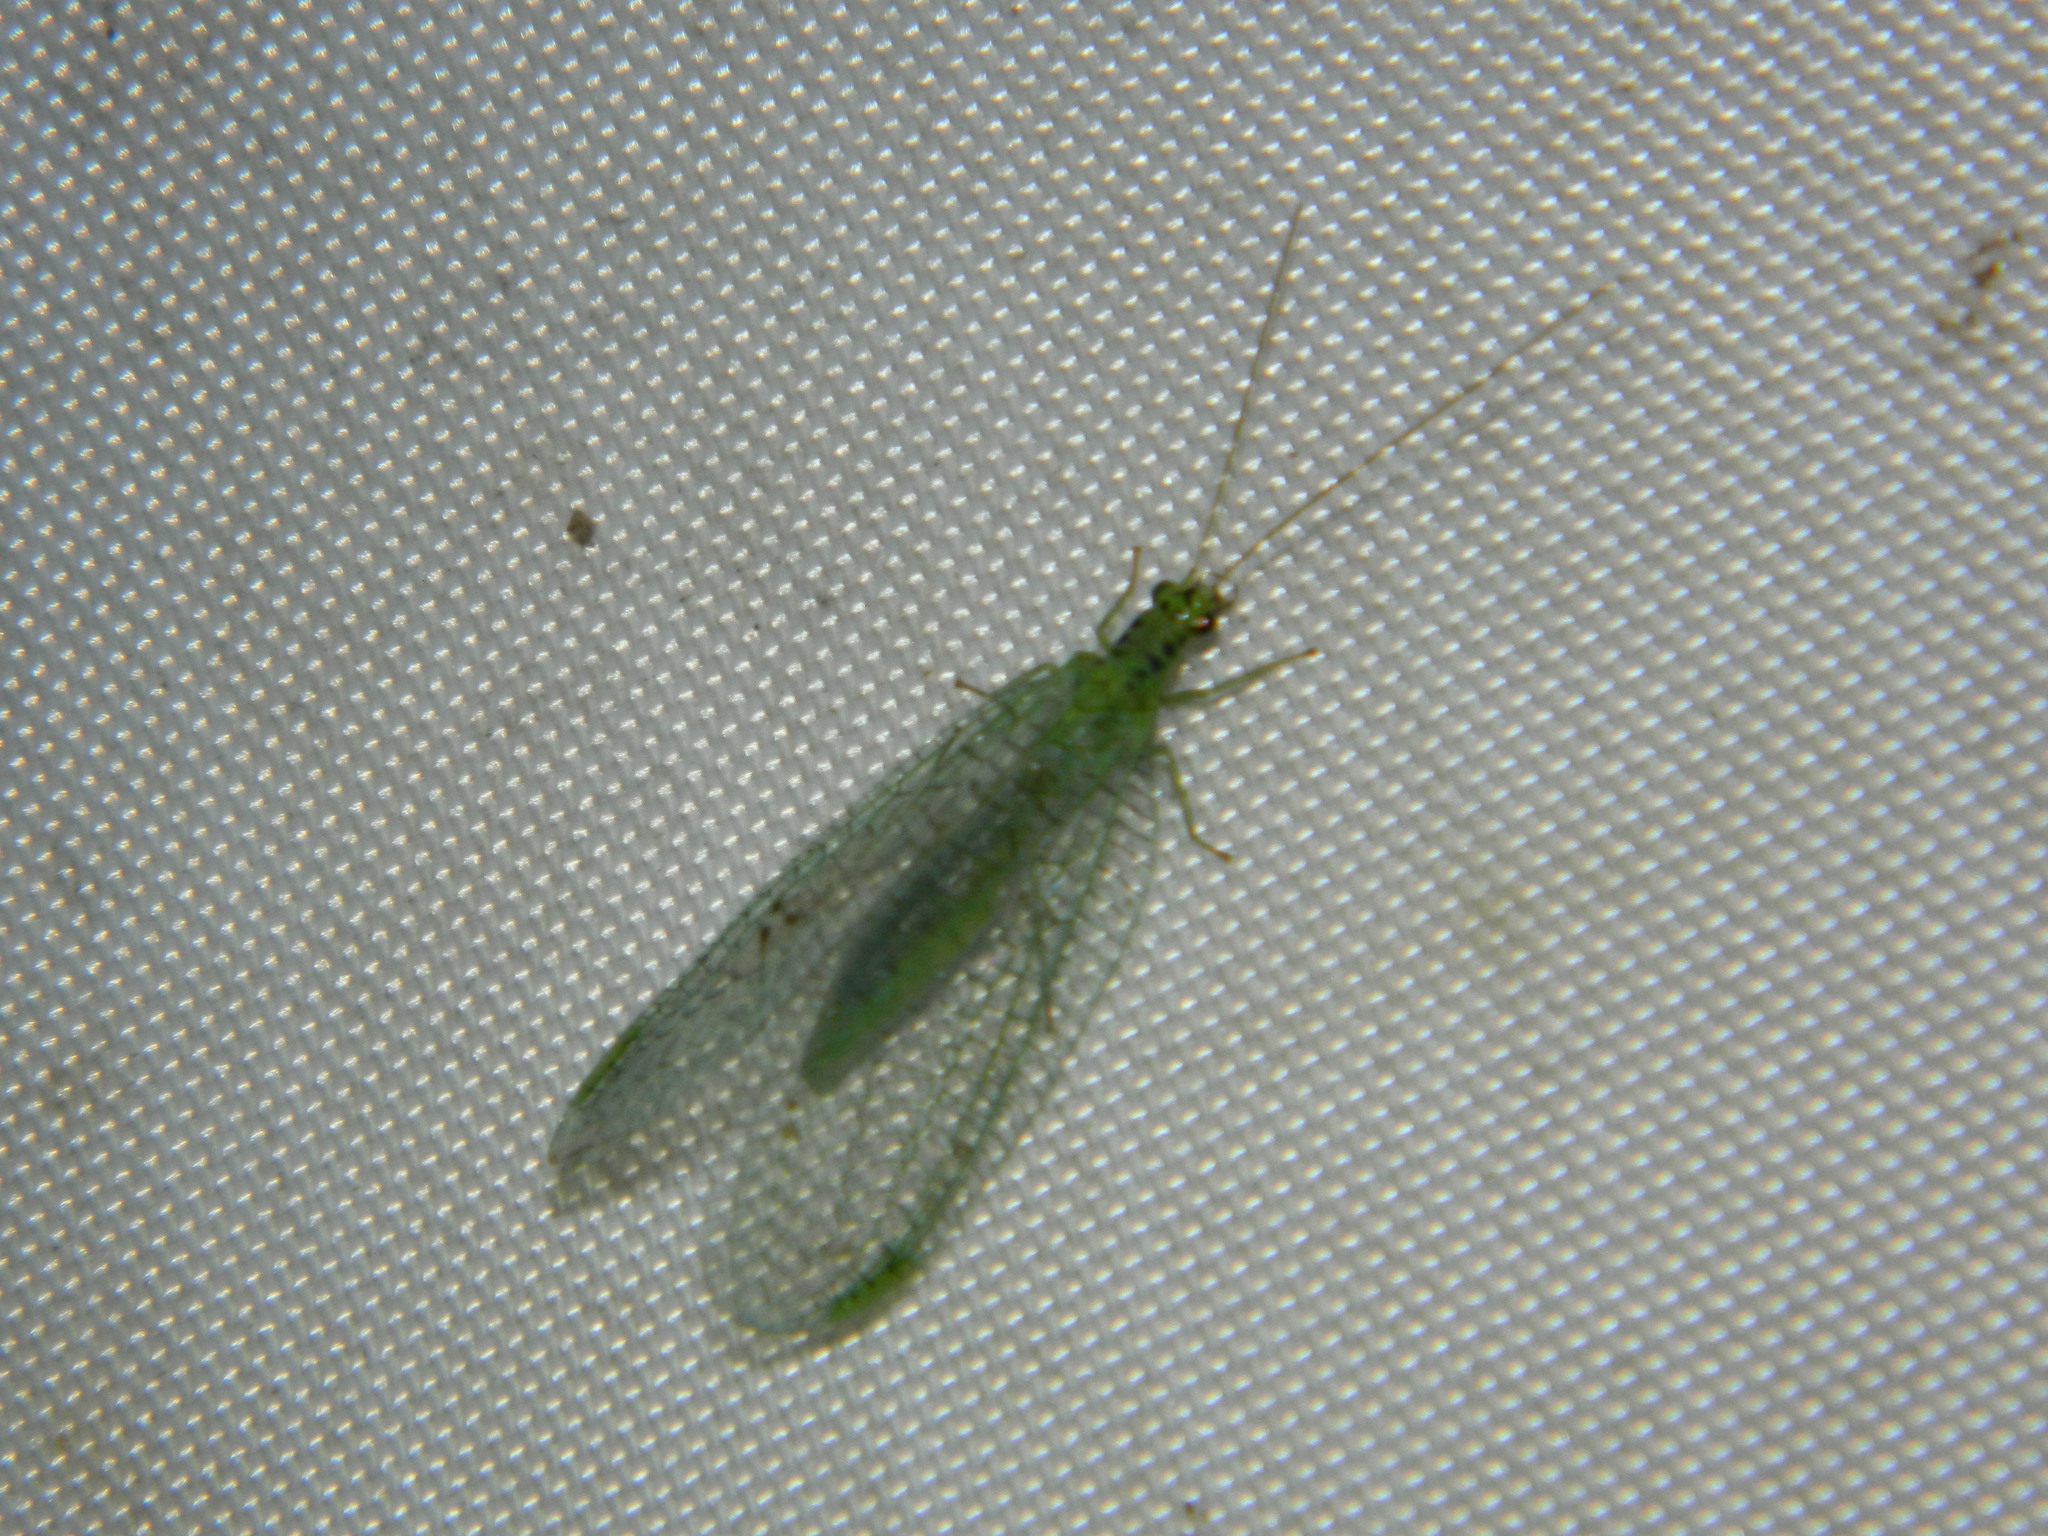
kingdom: Animalia
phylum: Arthropoda
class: Insecta
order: Neuroptera
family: Chrysopidae
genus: Chrysopa
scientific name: Chrysopa chi
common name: X-marked green lacewing
